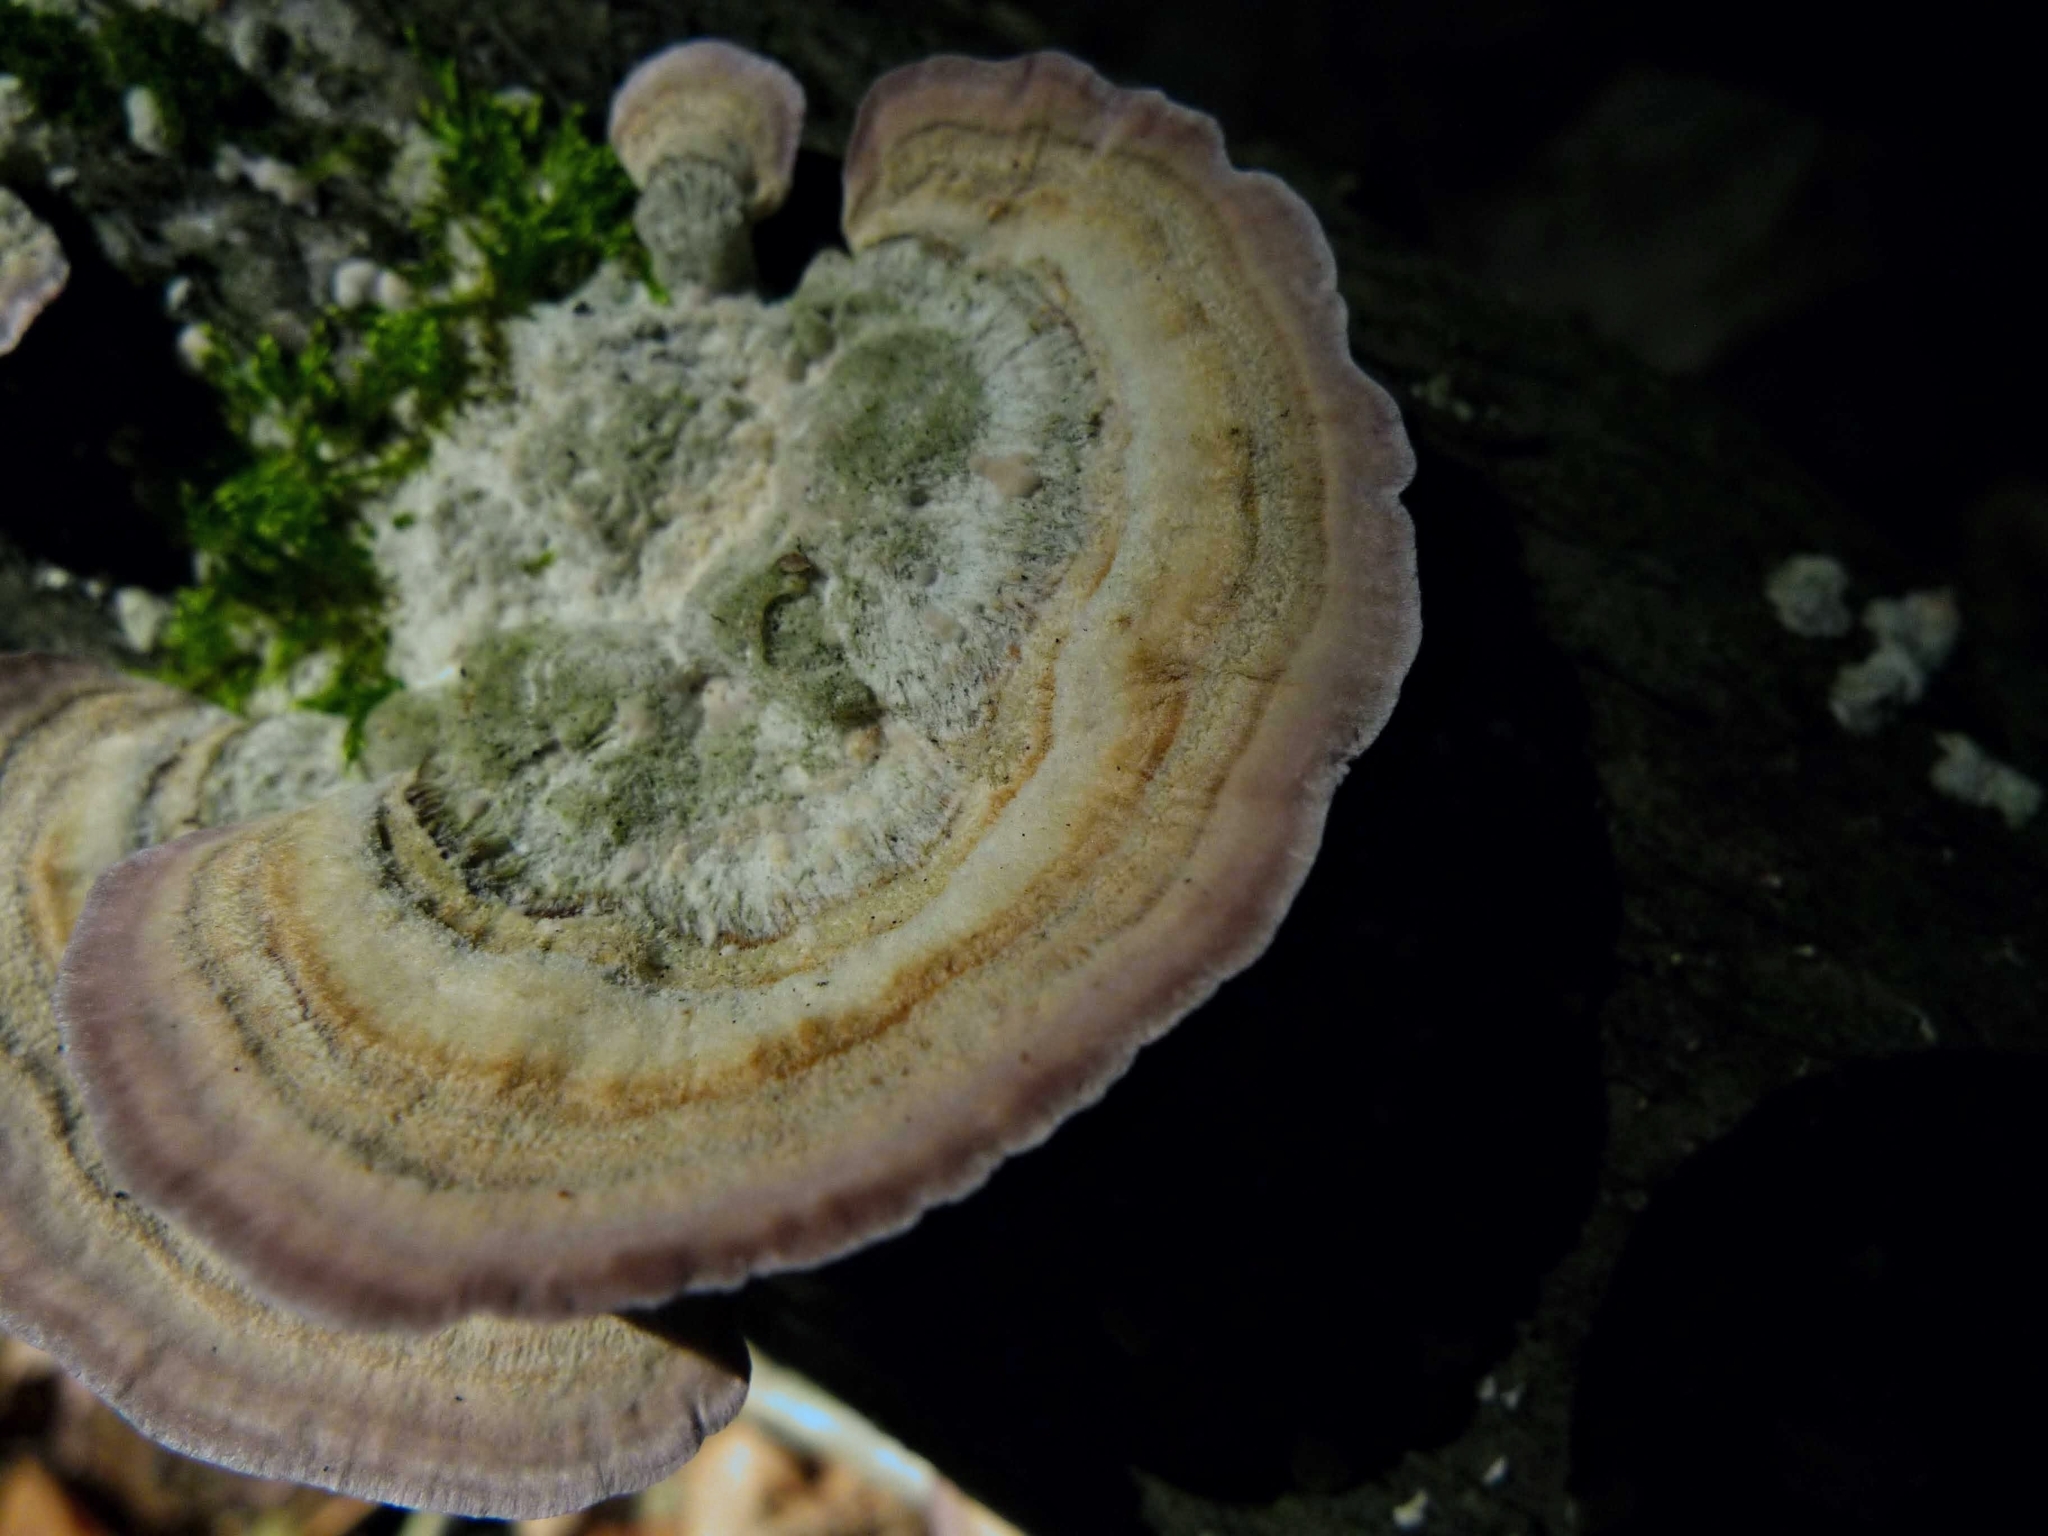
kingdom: Fungi
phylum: Basidiomycota
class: Agaricomycetes
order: Hymenochaetales
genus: Trichaptum
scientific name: Trichaptum biforme
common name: Violet-toothed polypore
